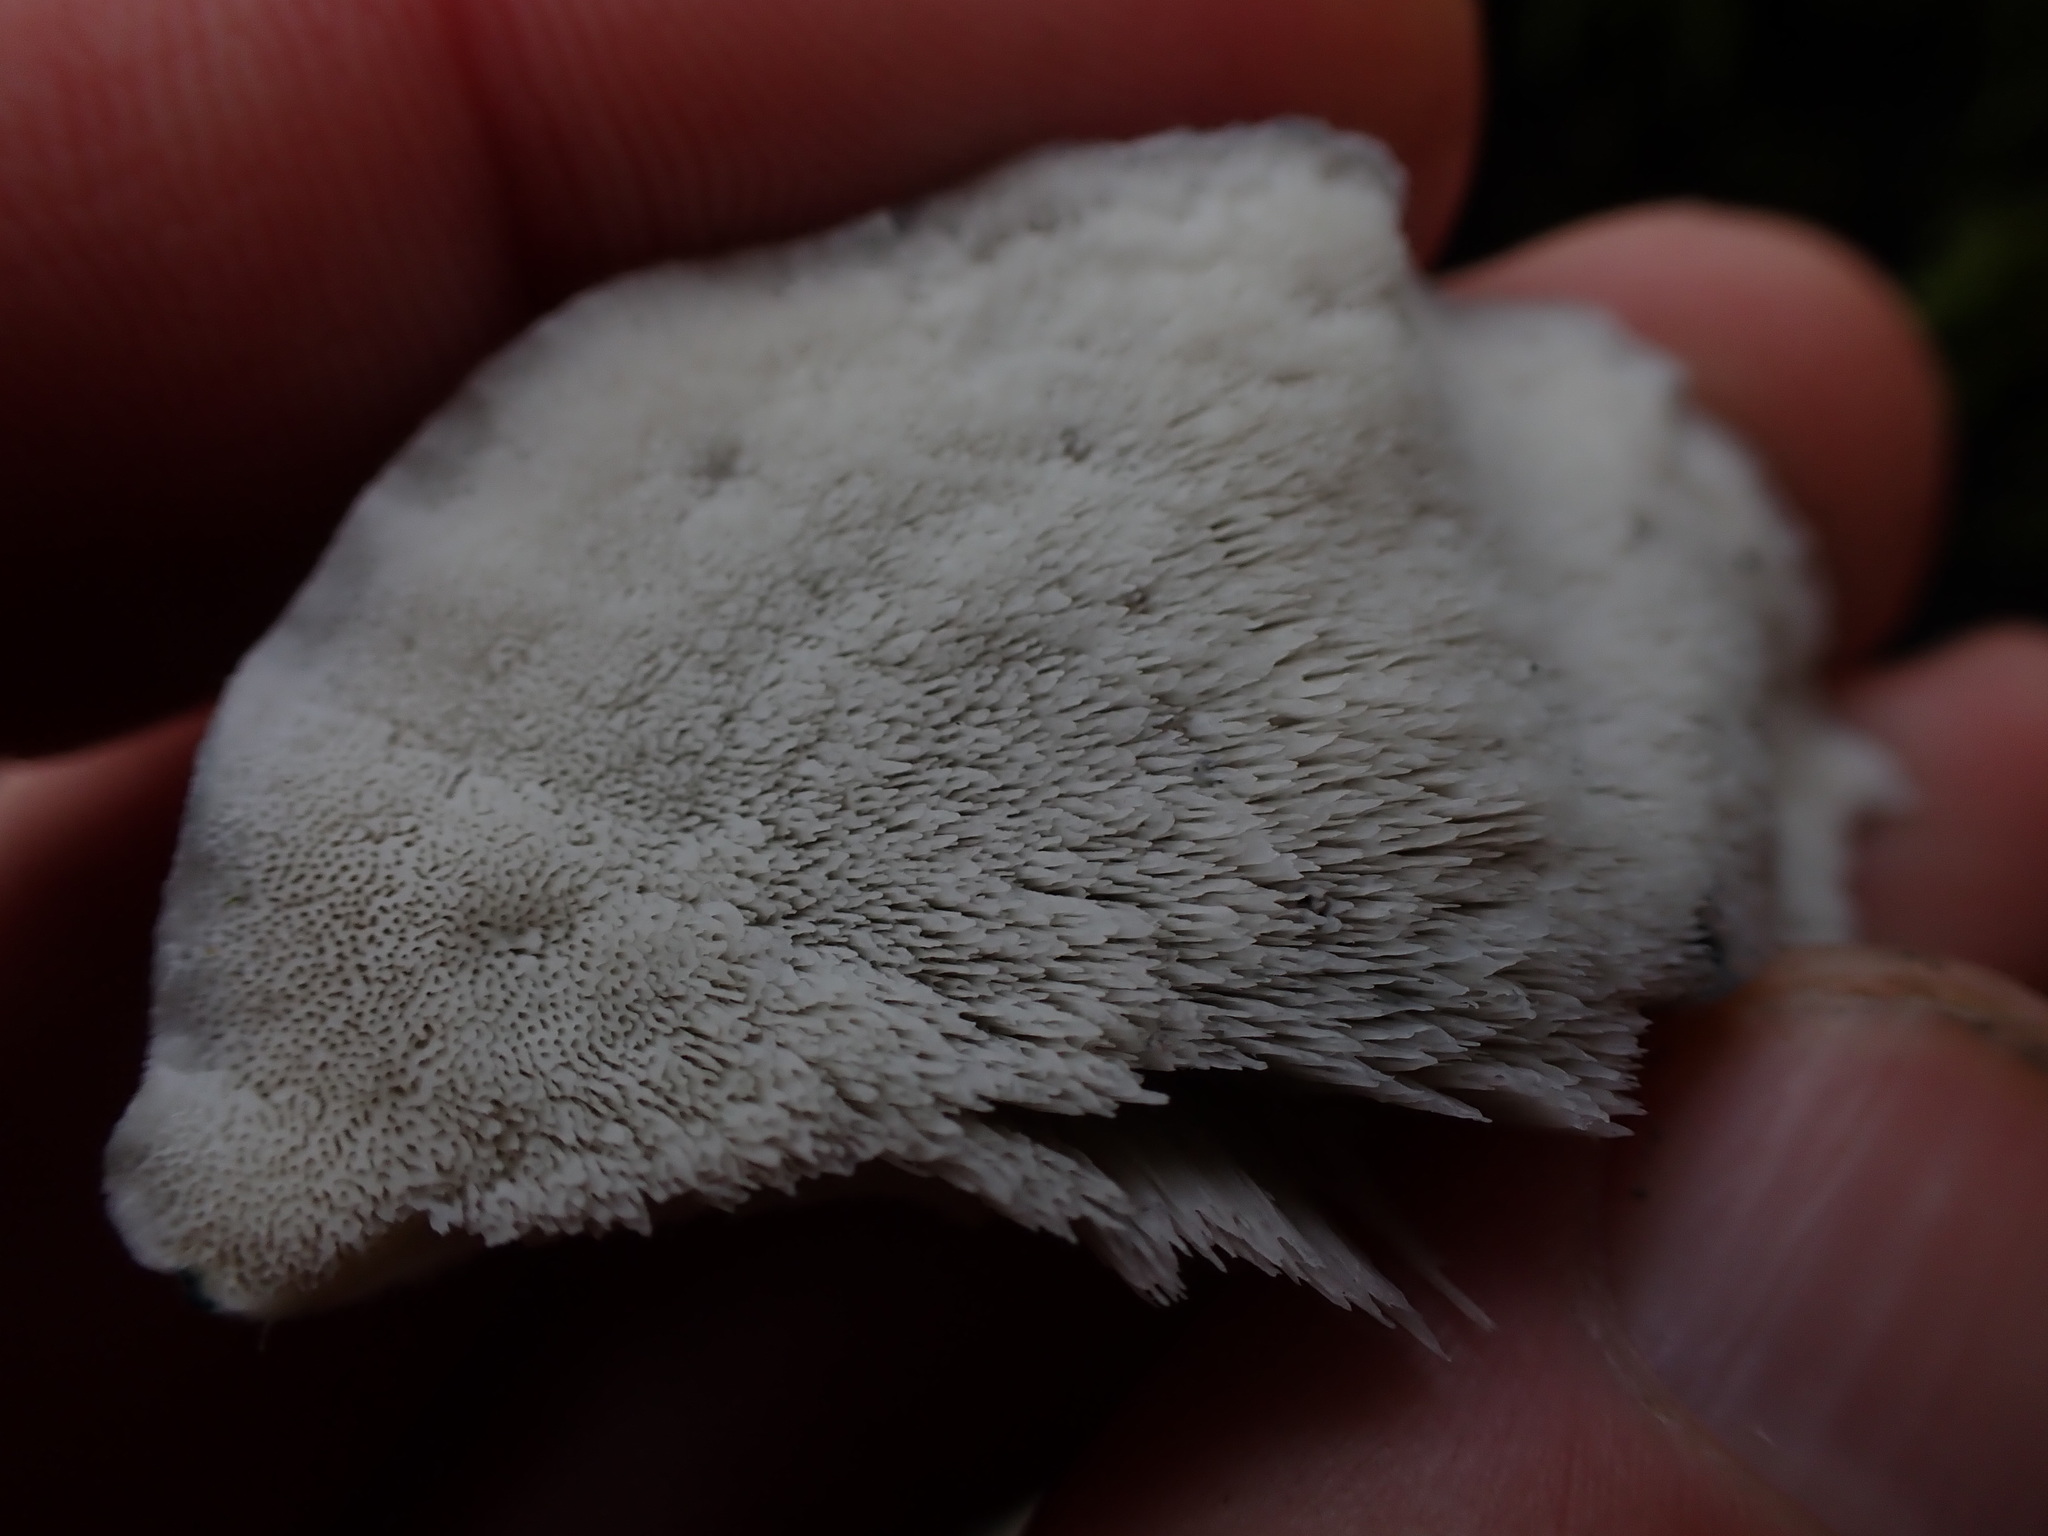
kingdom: Fungi
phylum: Basidiomycota
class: Agaricomycetes
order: Polyporales
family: Polyporaceae
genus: Cyanosporus
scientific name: Cyanosporus caesius
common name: Blue cheese polypore
